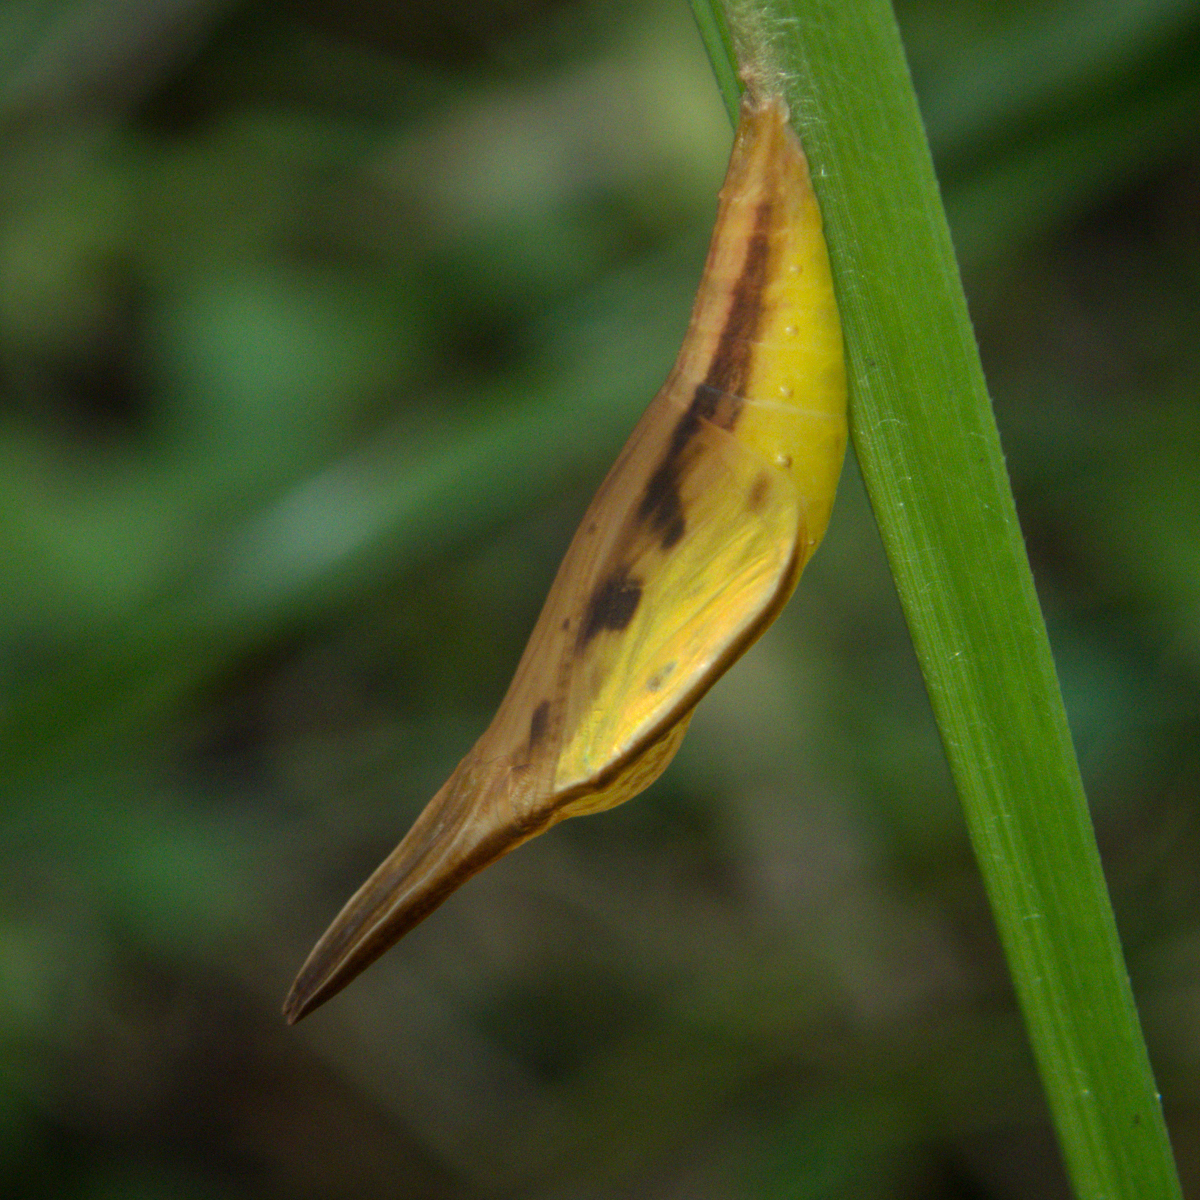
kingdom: Animalia
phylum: Arthropoda
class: Insecta
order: Lepidoptera
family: Nymphalidae
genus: Orsotriaena
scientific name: Orsotriaena medus
